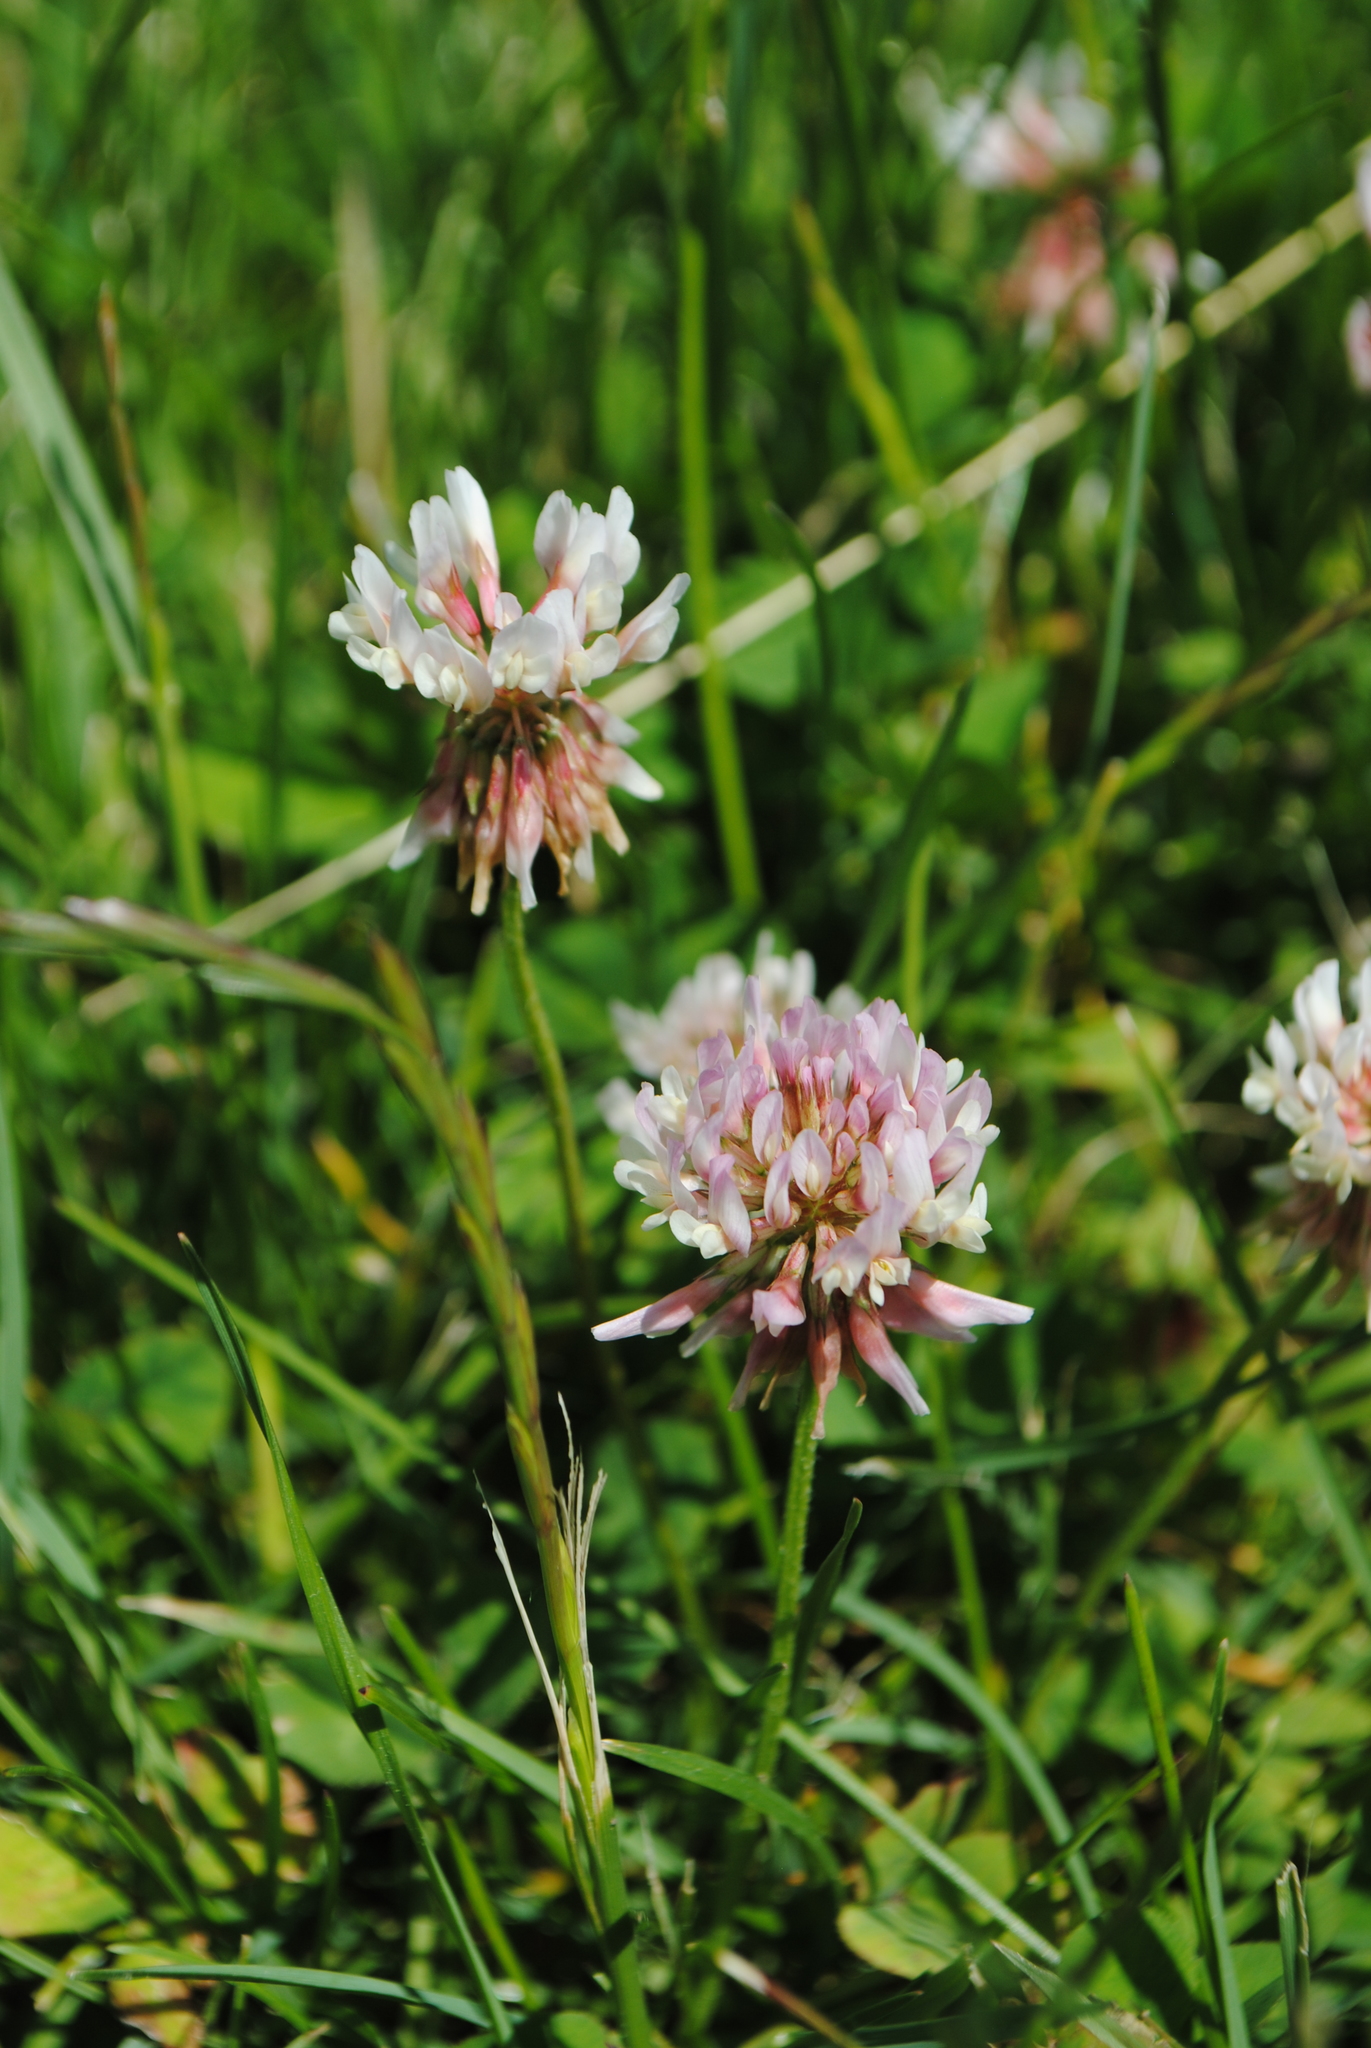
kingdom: Plantae
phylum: Tracheophyta
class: Magnoliopsida
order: Fabales
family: Fabaceae
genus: Trifolium
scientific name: Trifolium hybridum
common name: Alsike clover
